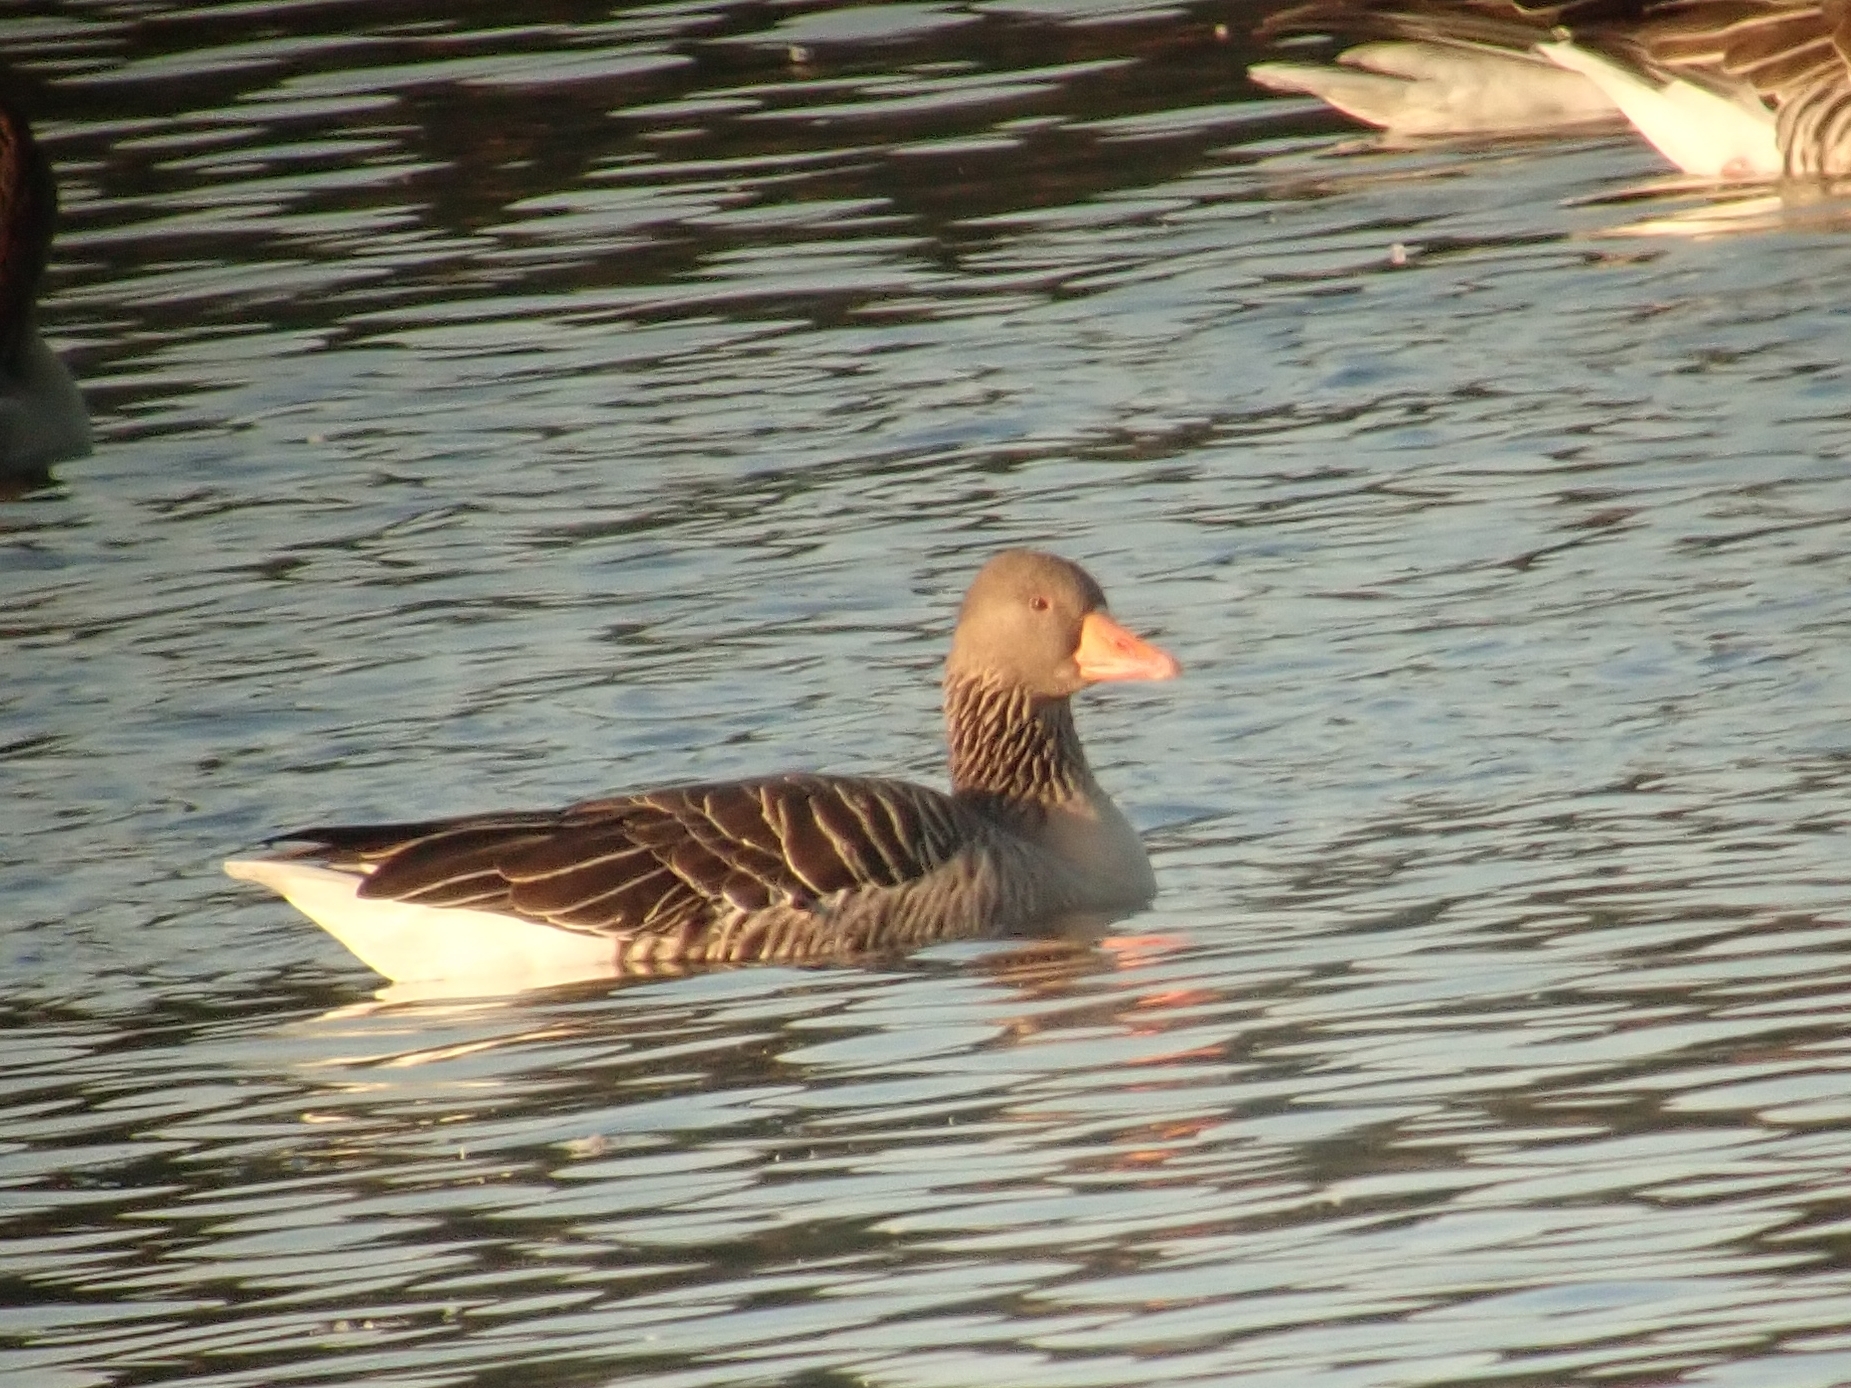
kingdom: Animalia
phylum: Chordata
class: Aves
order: Anseriformes
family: Anatidae
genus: Anser
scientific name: Anser anser
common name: Greylag goose
